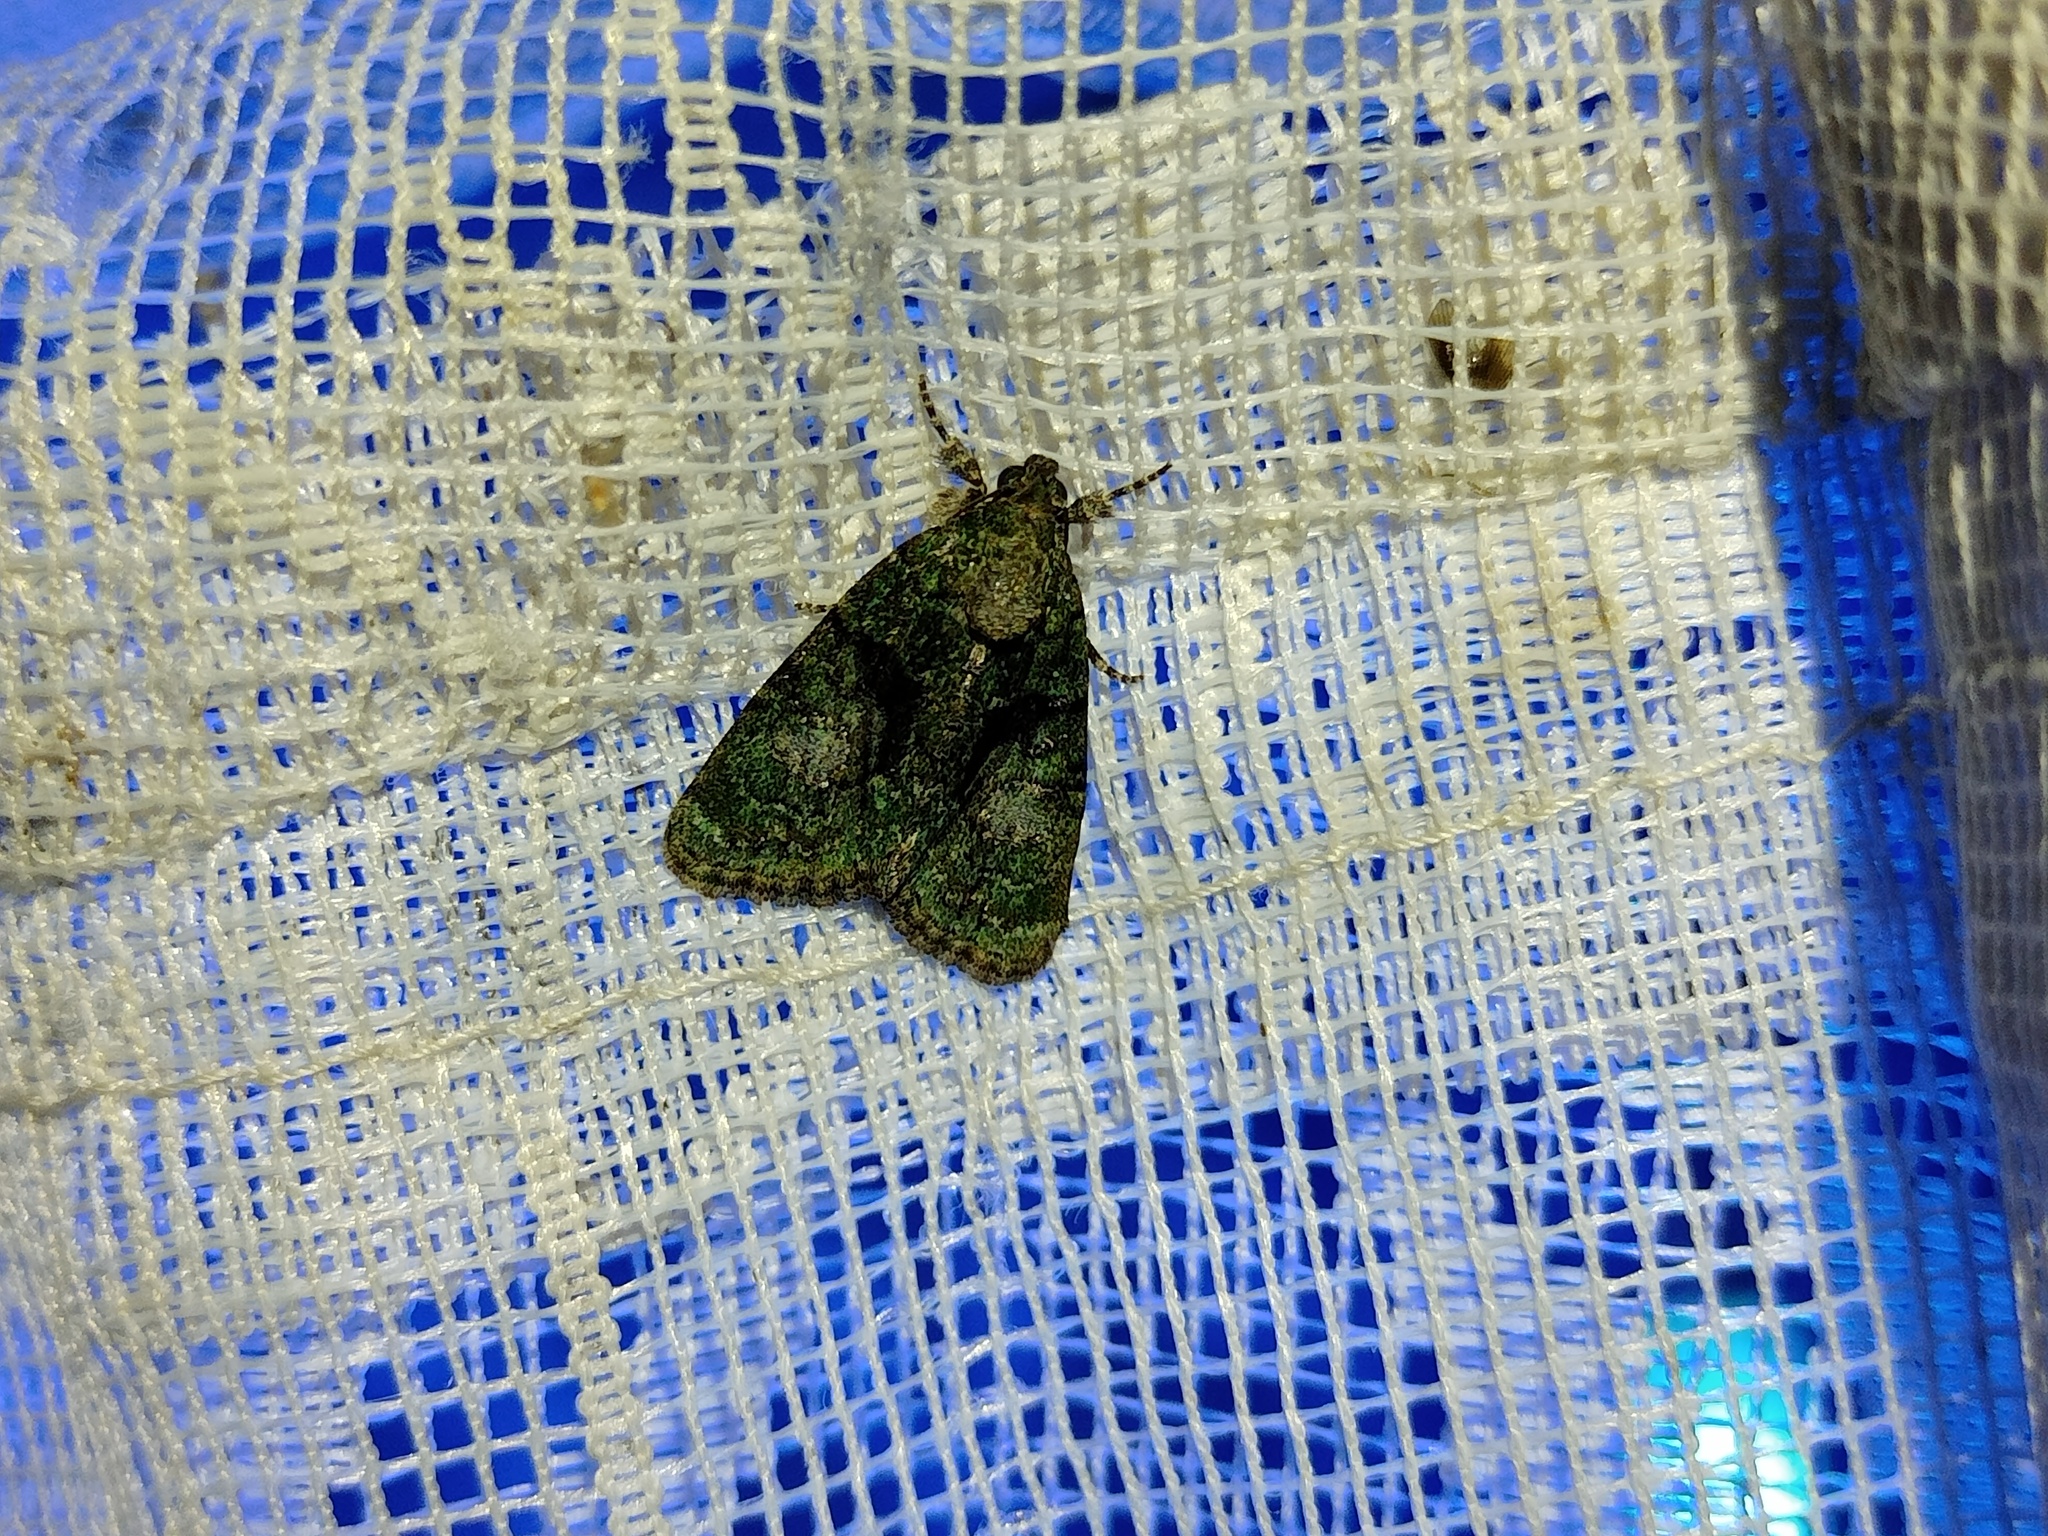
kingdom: Animalia
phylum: Arthropoda
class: Insecta
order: Lepidoptera
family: Noctuidae
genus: Cryphia
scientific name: Cryphia algae
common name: Tree-lichen beauty
